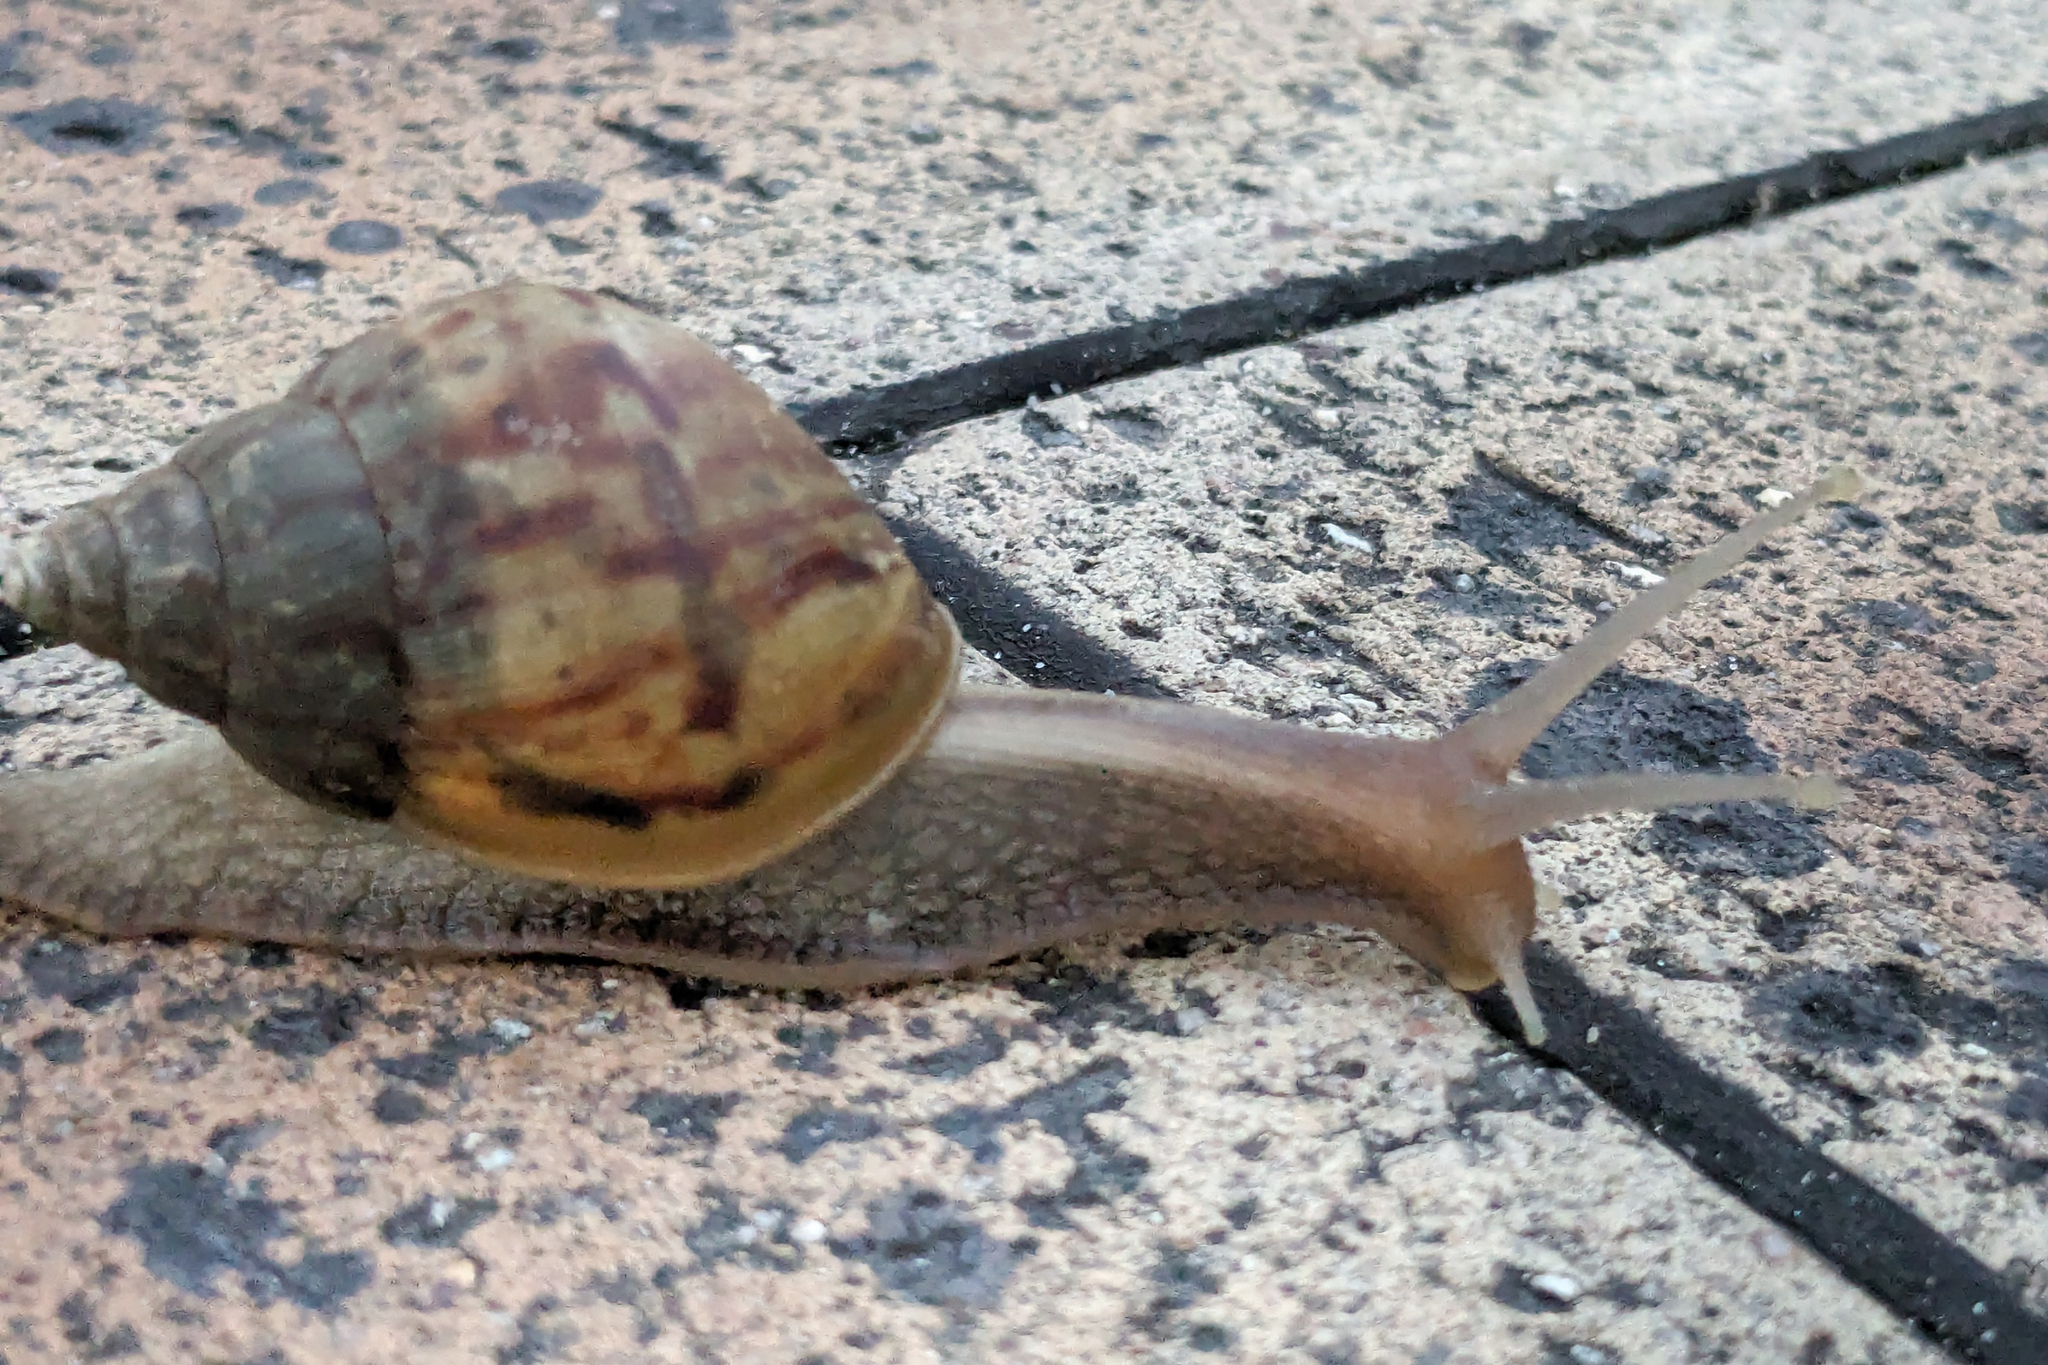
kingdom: Animalia
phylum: Mollusca
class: Gastropoda
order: Stylommatophora
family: Achatinidae
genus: Lissachatina
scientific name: Lissachatina fulica
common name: Giant african snail
